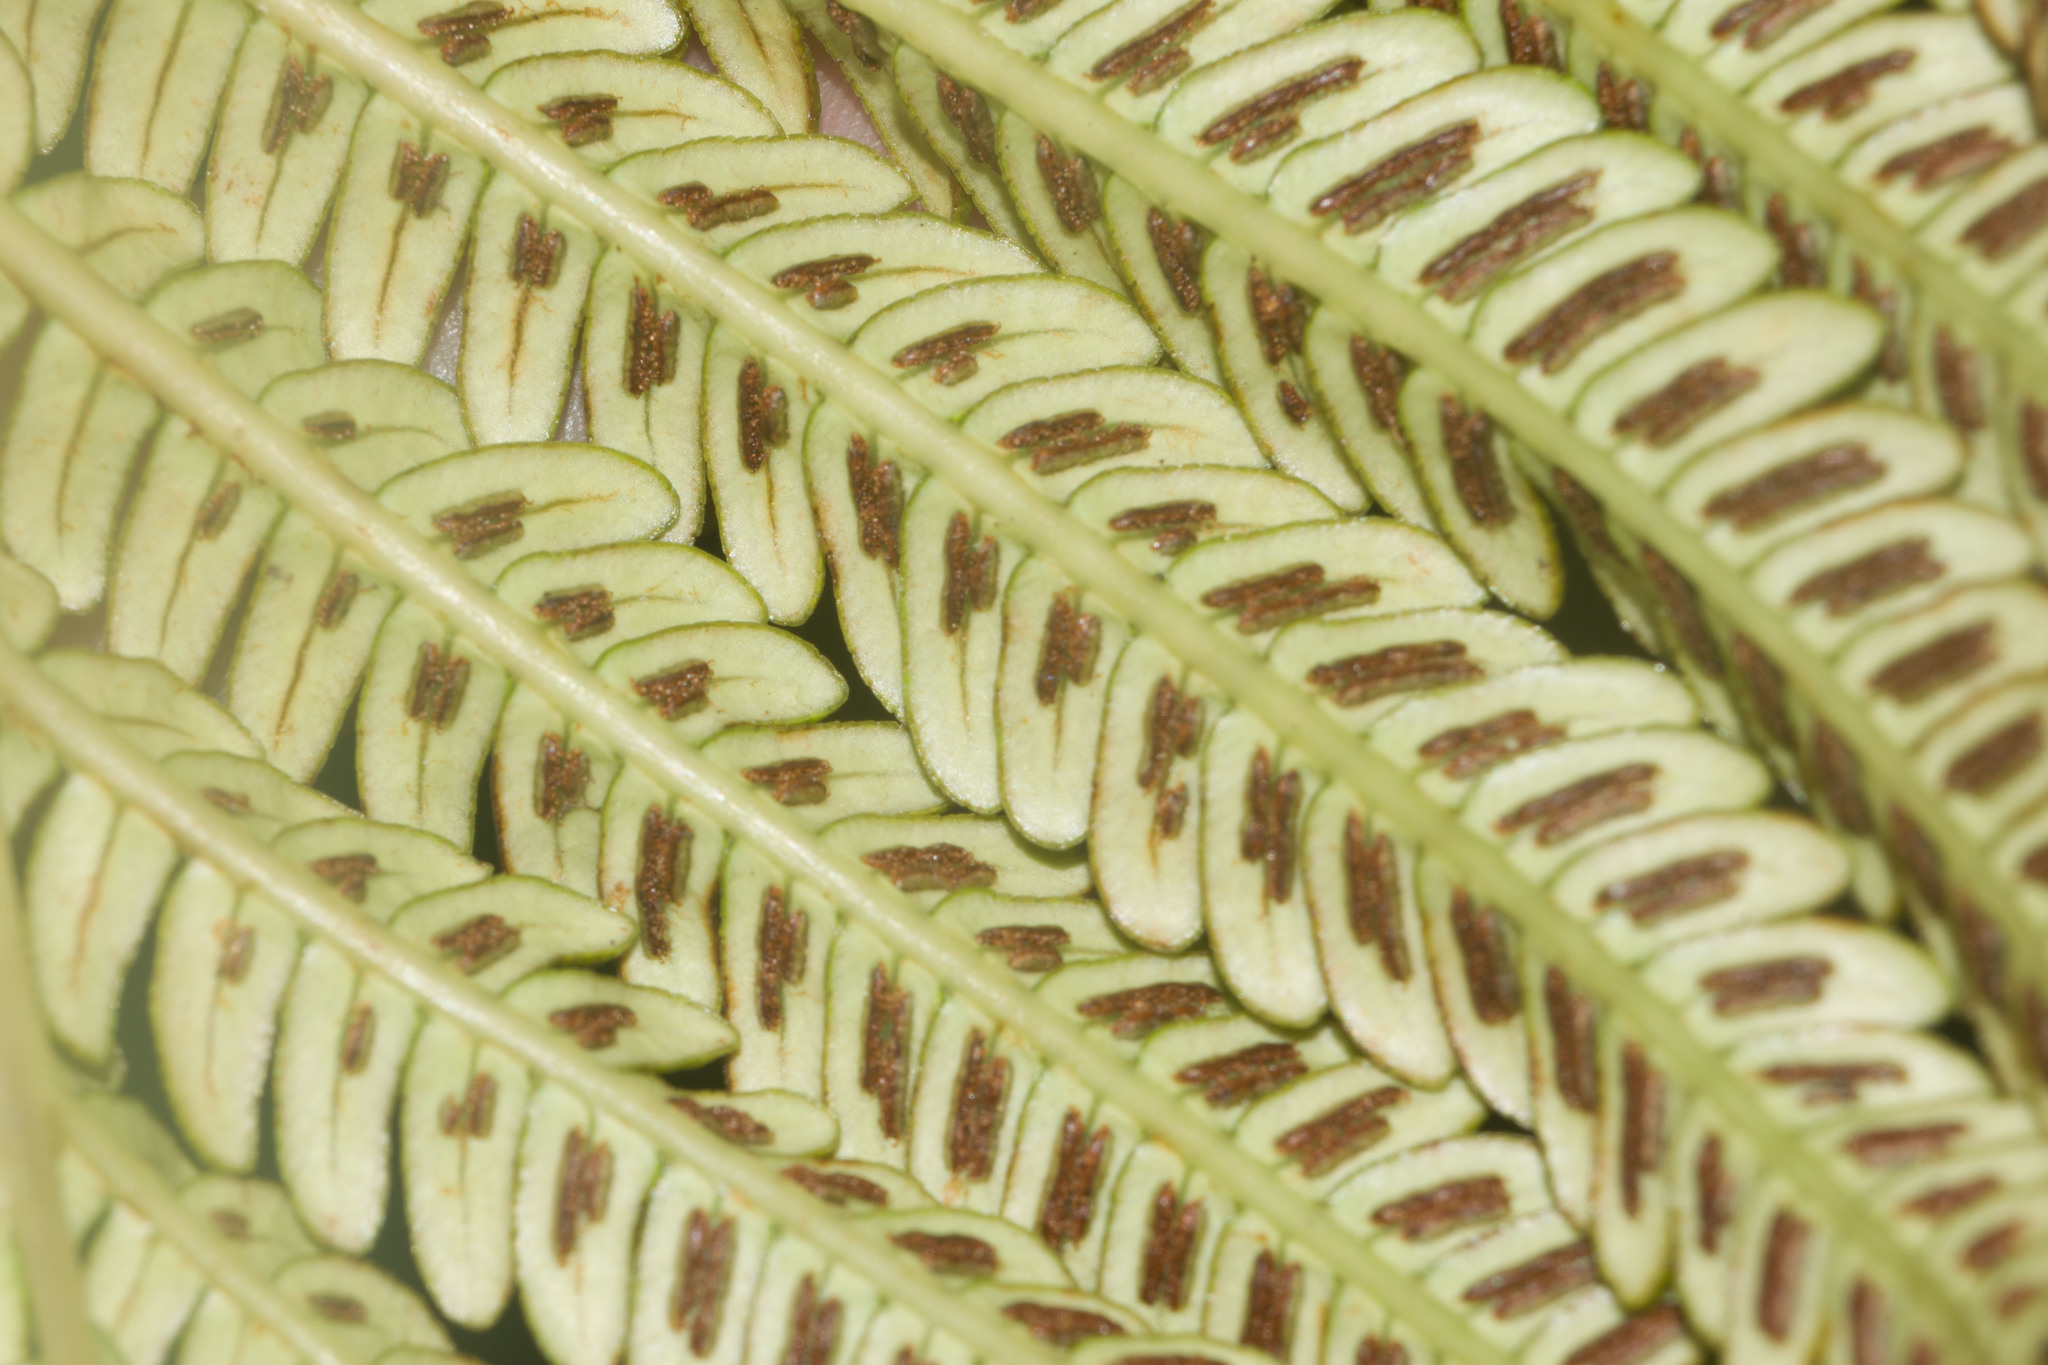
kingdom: Plantae
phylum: Tracheophyta
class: Polypodiopsida
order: Polypodiales
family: Blechnaceae
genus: Sadleria
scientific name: Sadleria cyatheoides
